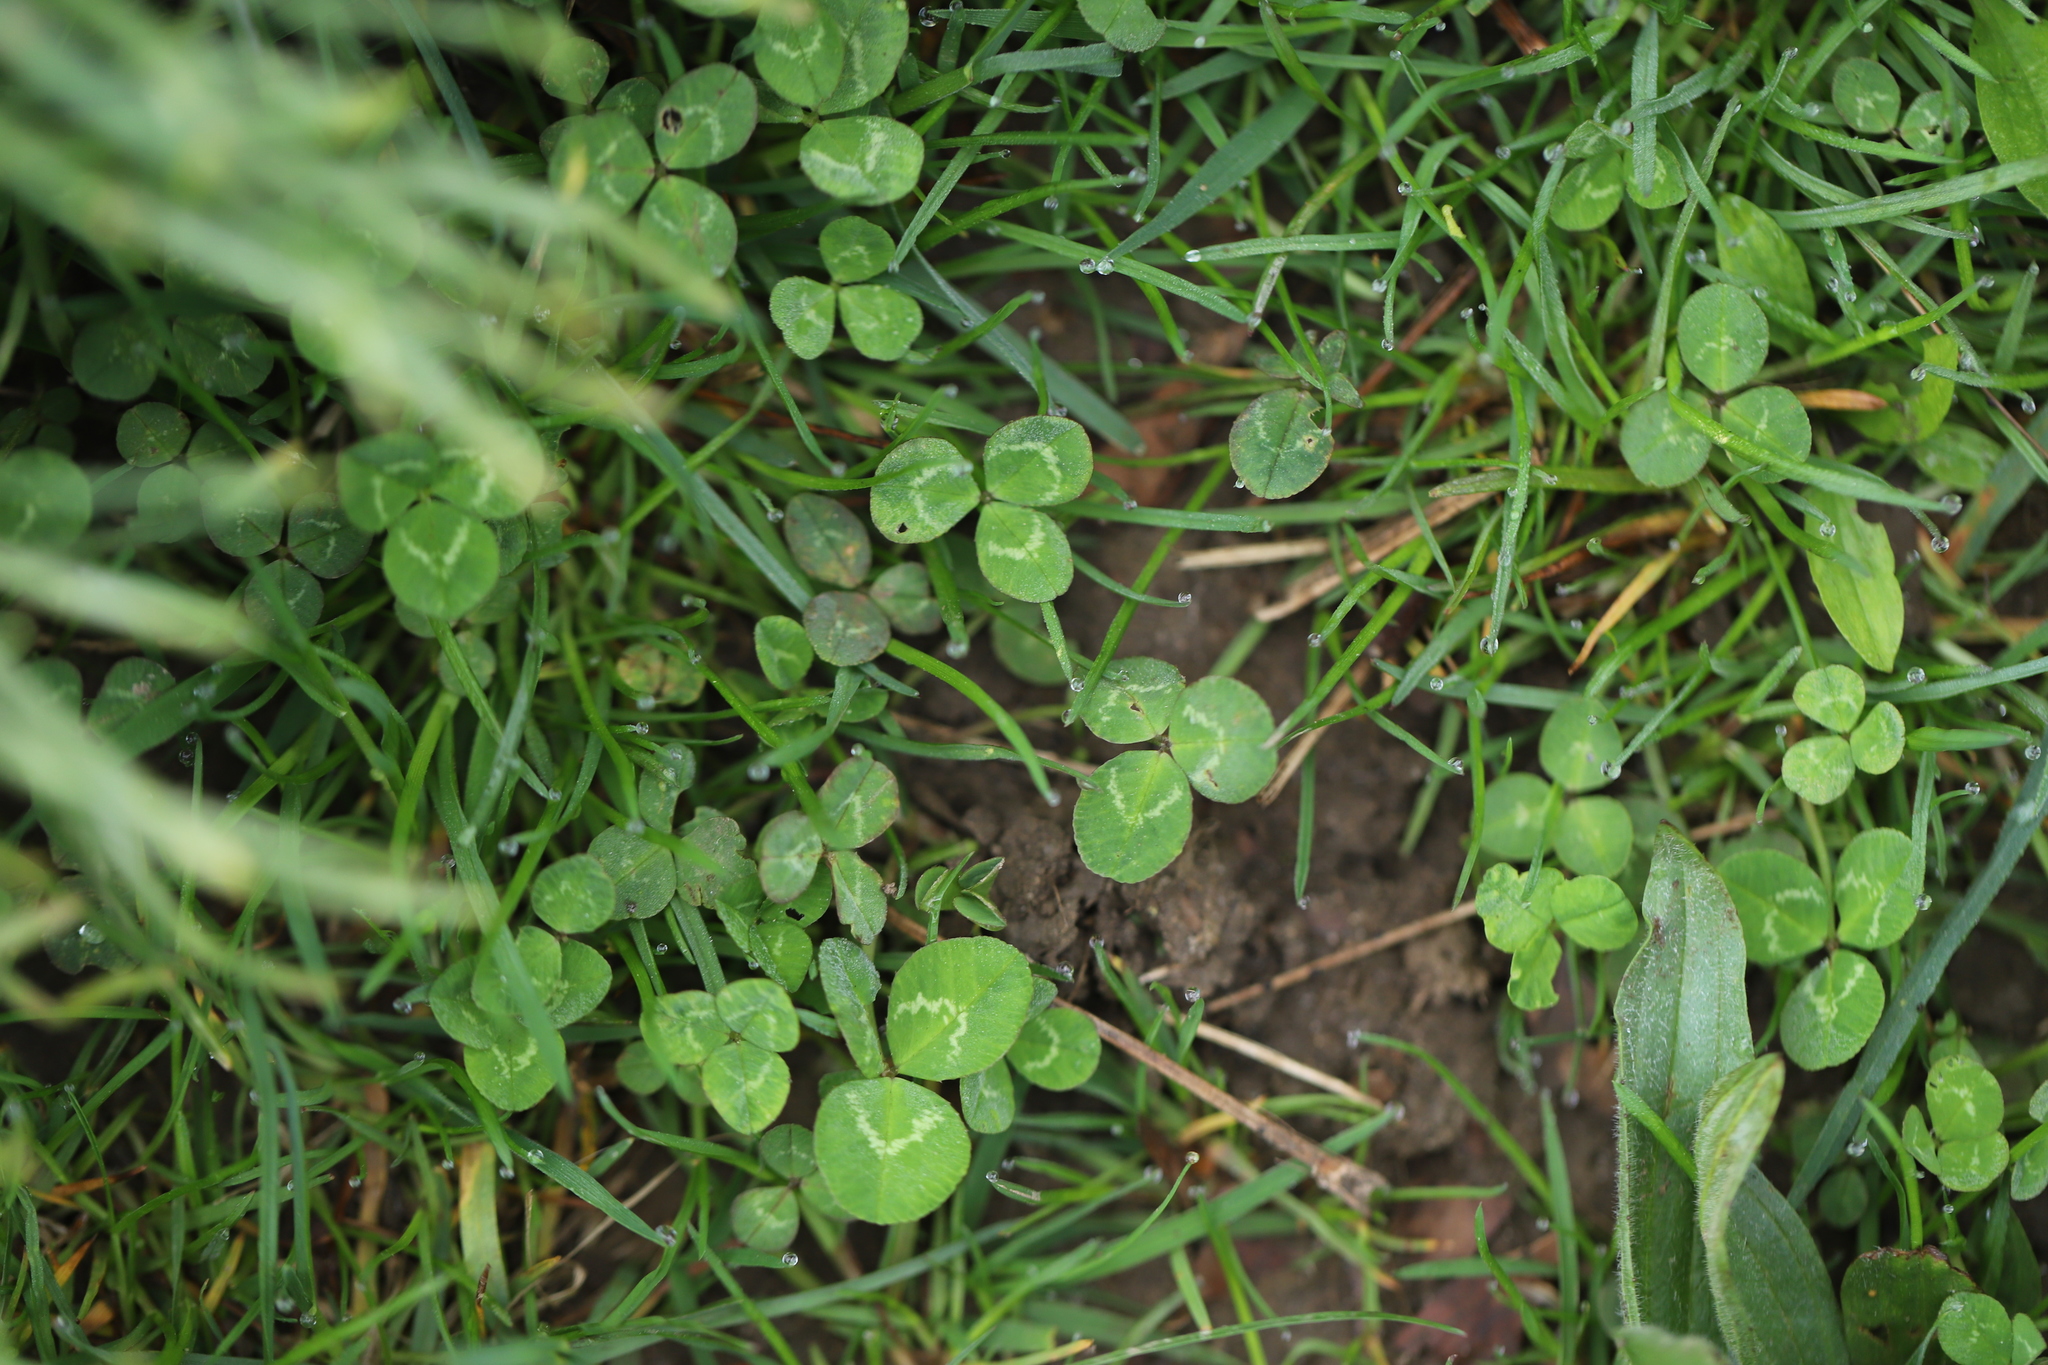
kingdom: Plantae
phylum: Tracheophyta
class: Magnoliopsida
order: Fabales
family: Fabaceae
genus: Trifolium
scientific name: Trifolium repens
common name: White clover
